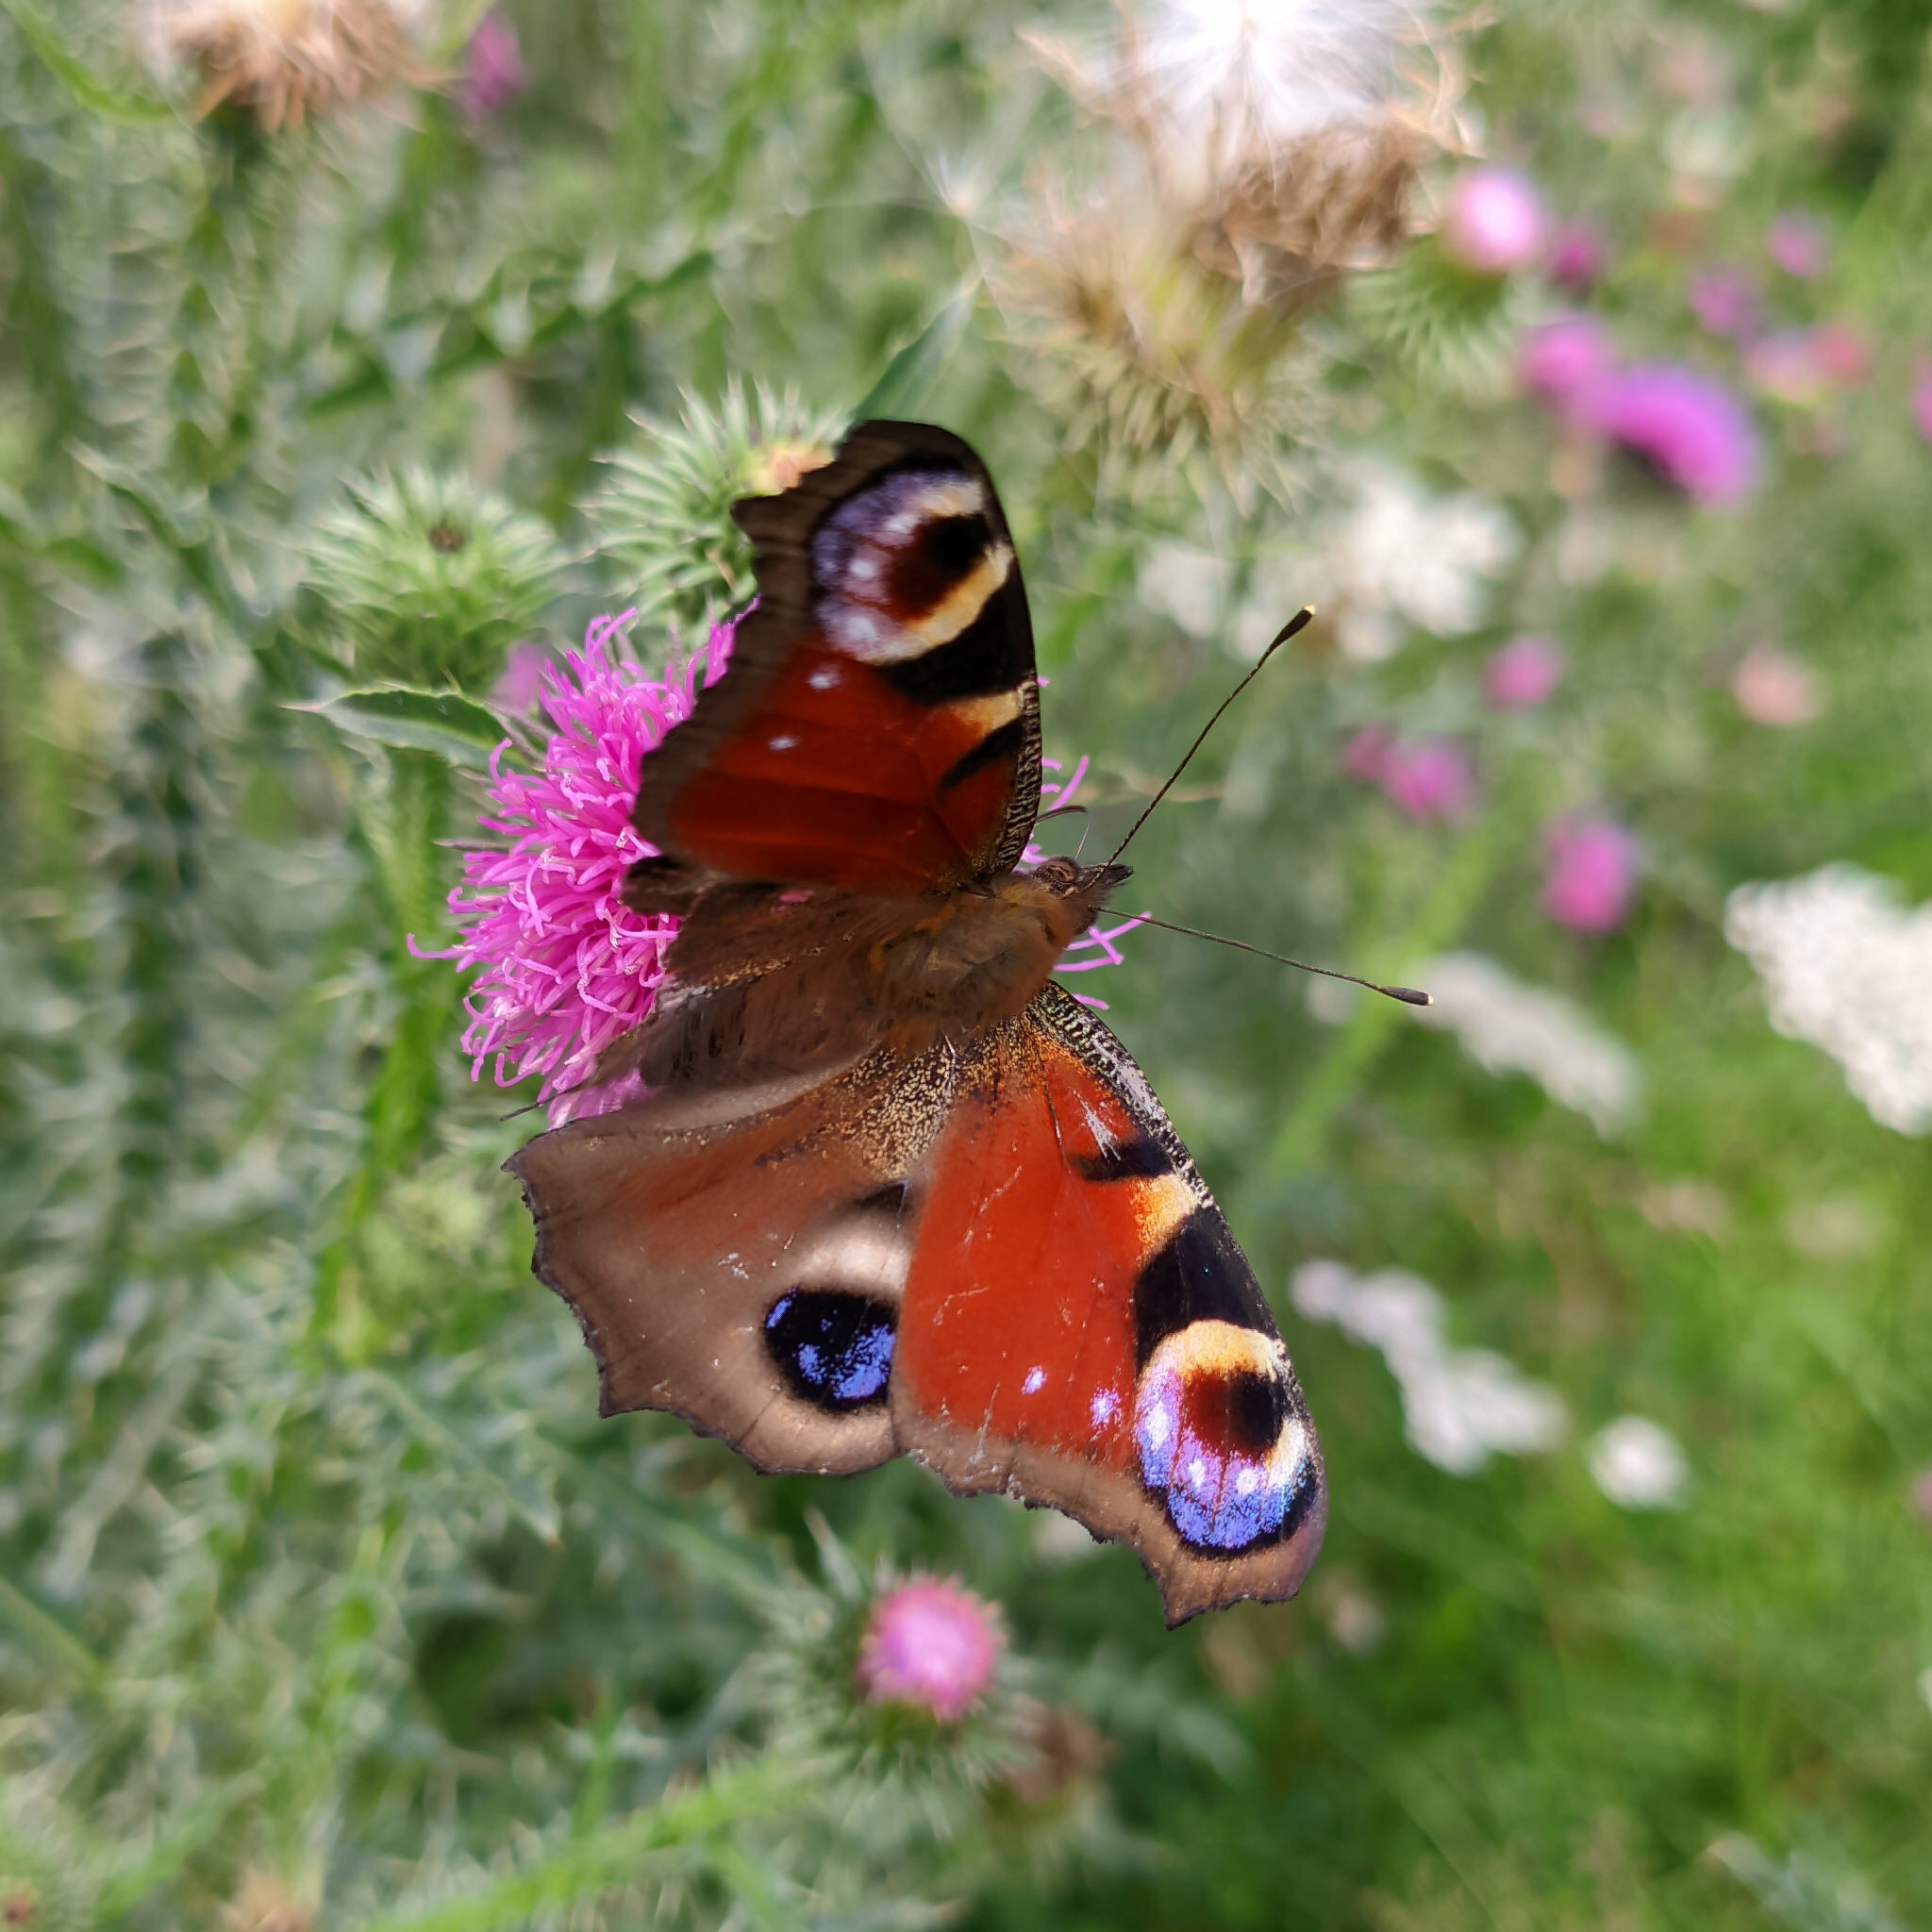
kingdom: Animalia
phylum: Arthropoda
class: Insecta
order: Lepidoptera
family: Nymphalidae
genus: Aglais
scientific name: Aglais io
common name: Peacock
